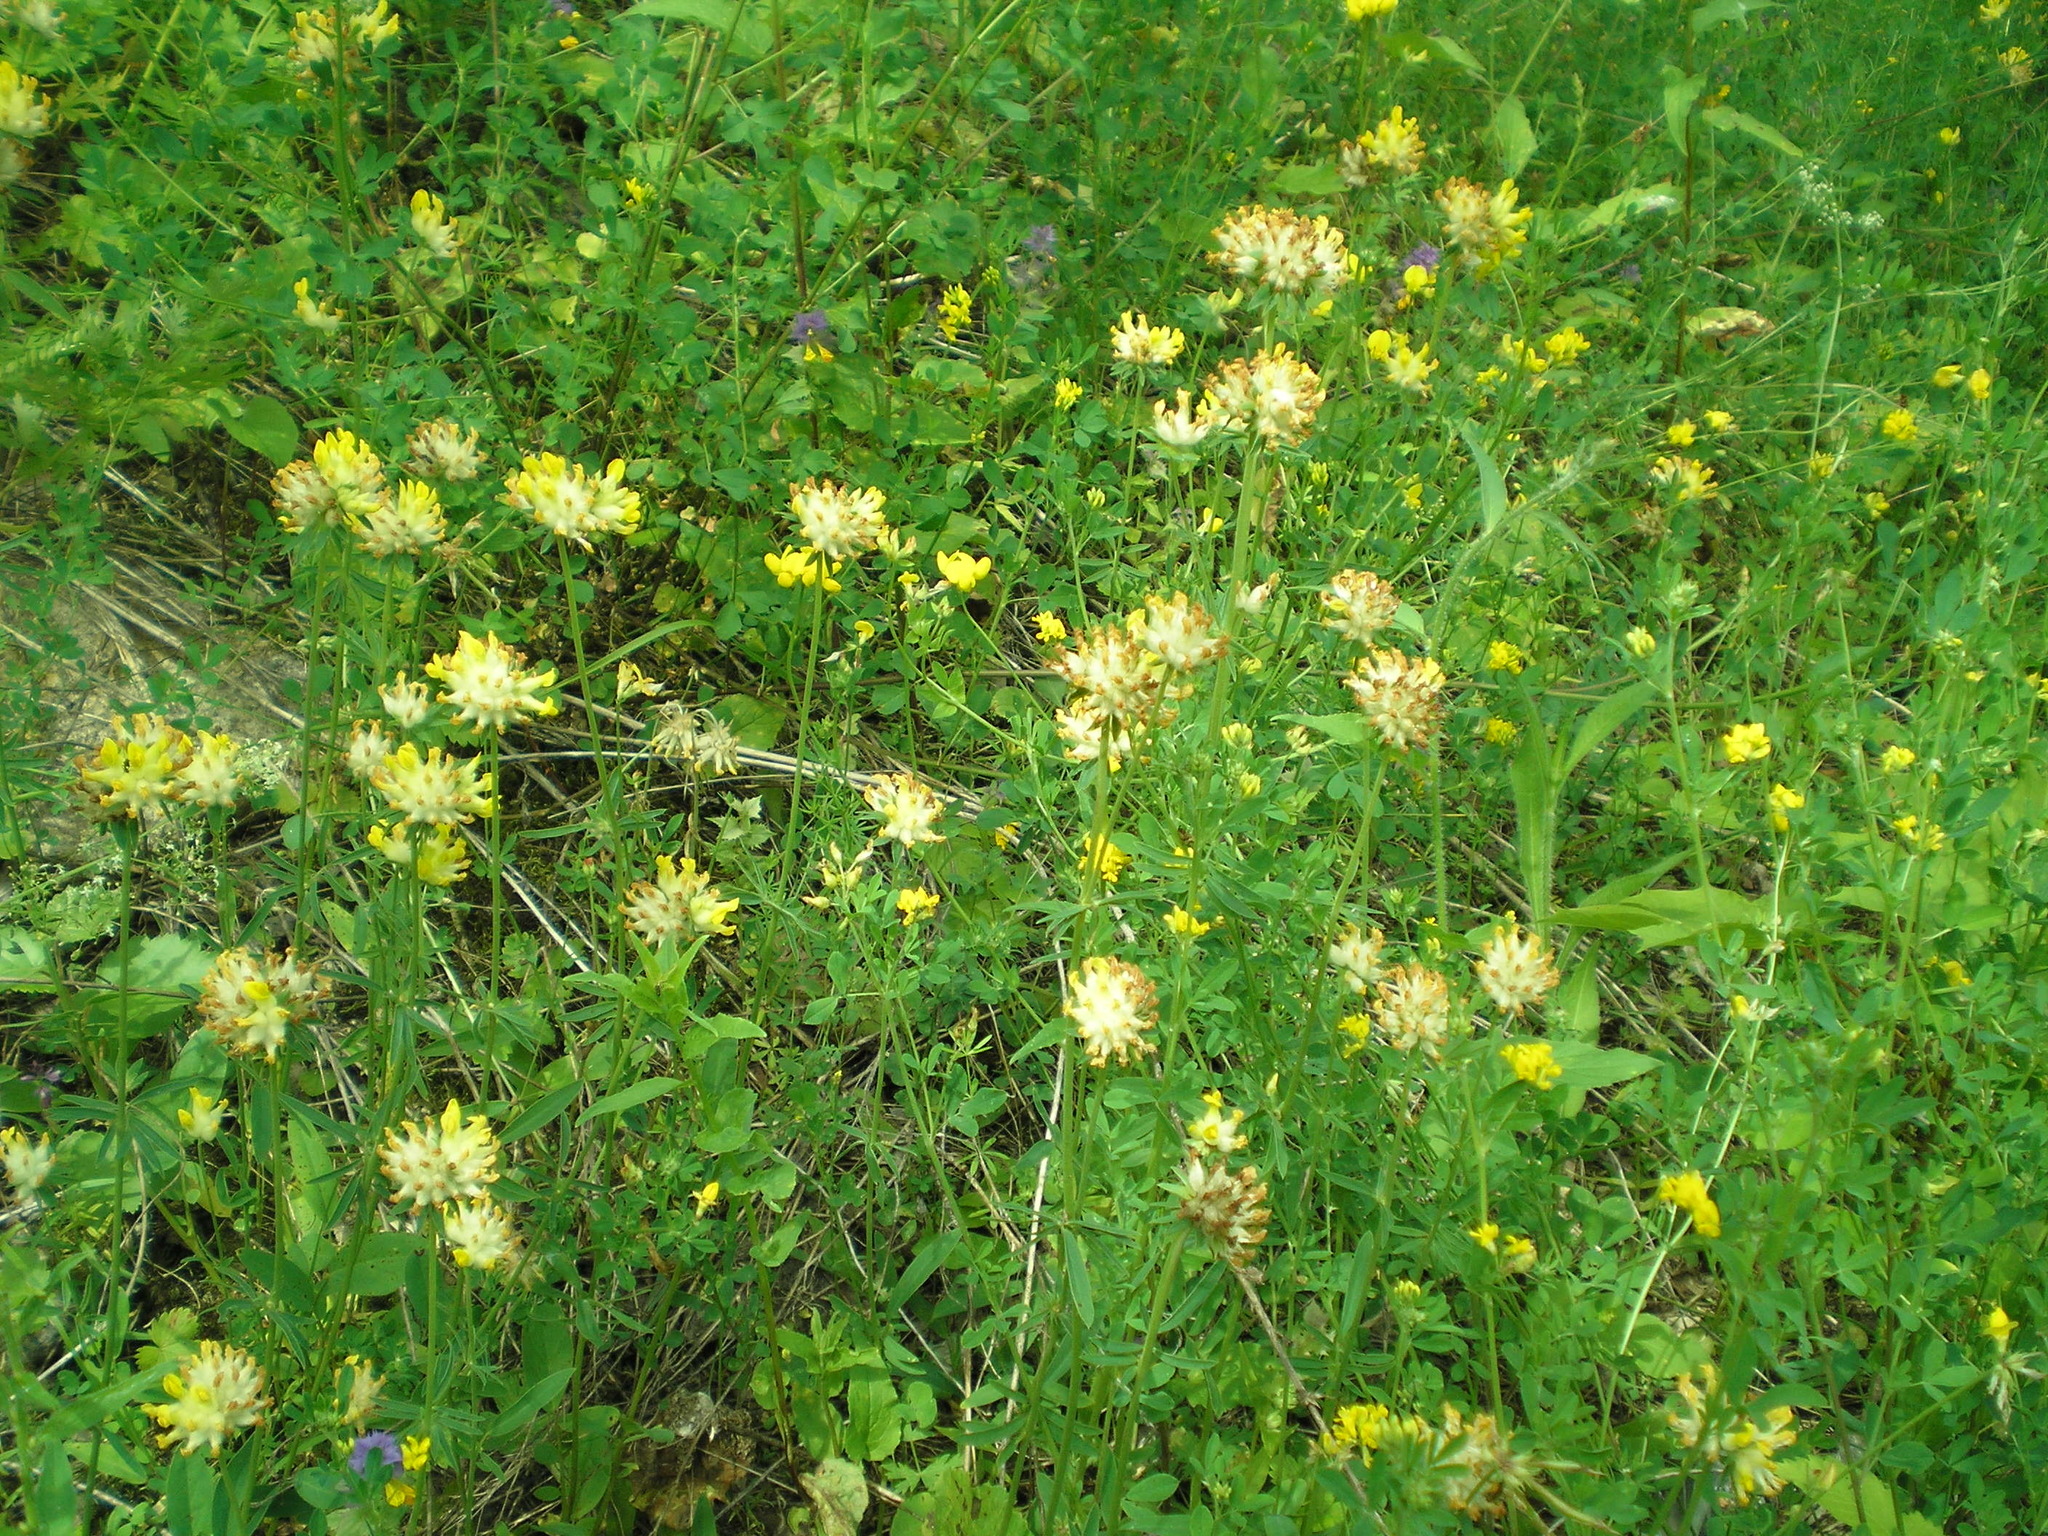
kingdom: Plantae
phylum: Tracheophyta
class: Magnoliopsida
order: Fabales
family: Fabaceae
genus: Anthyllis
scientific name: Anthyllis vulneraria
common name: Kidney vetch
